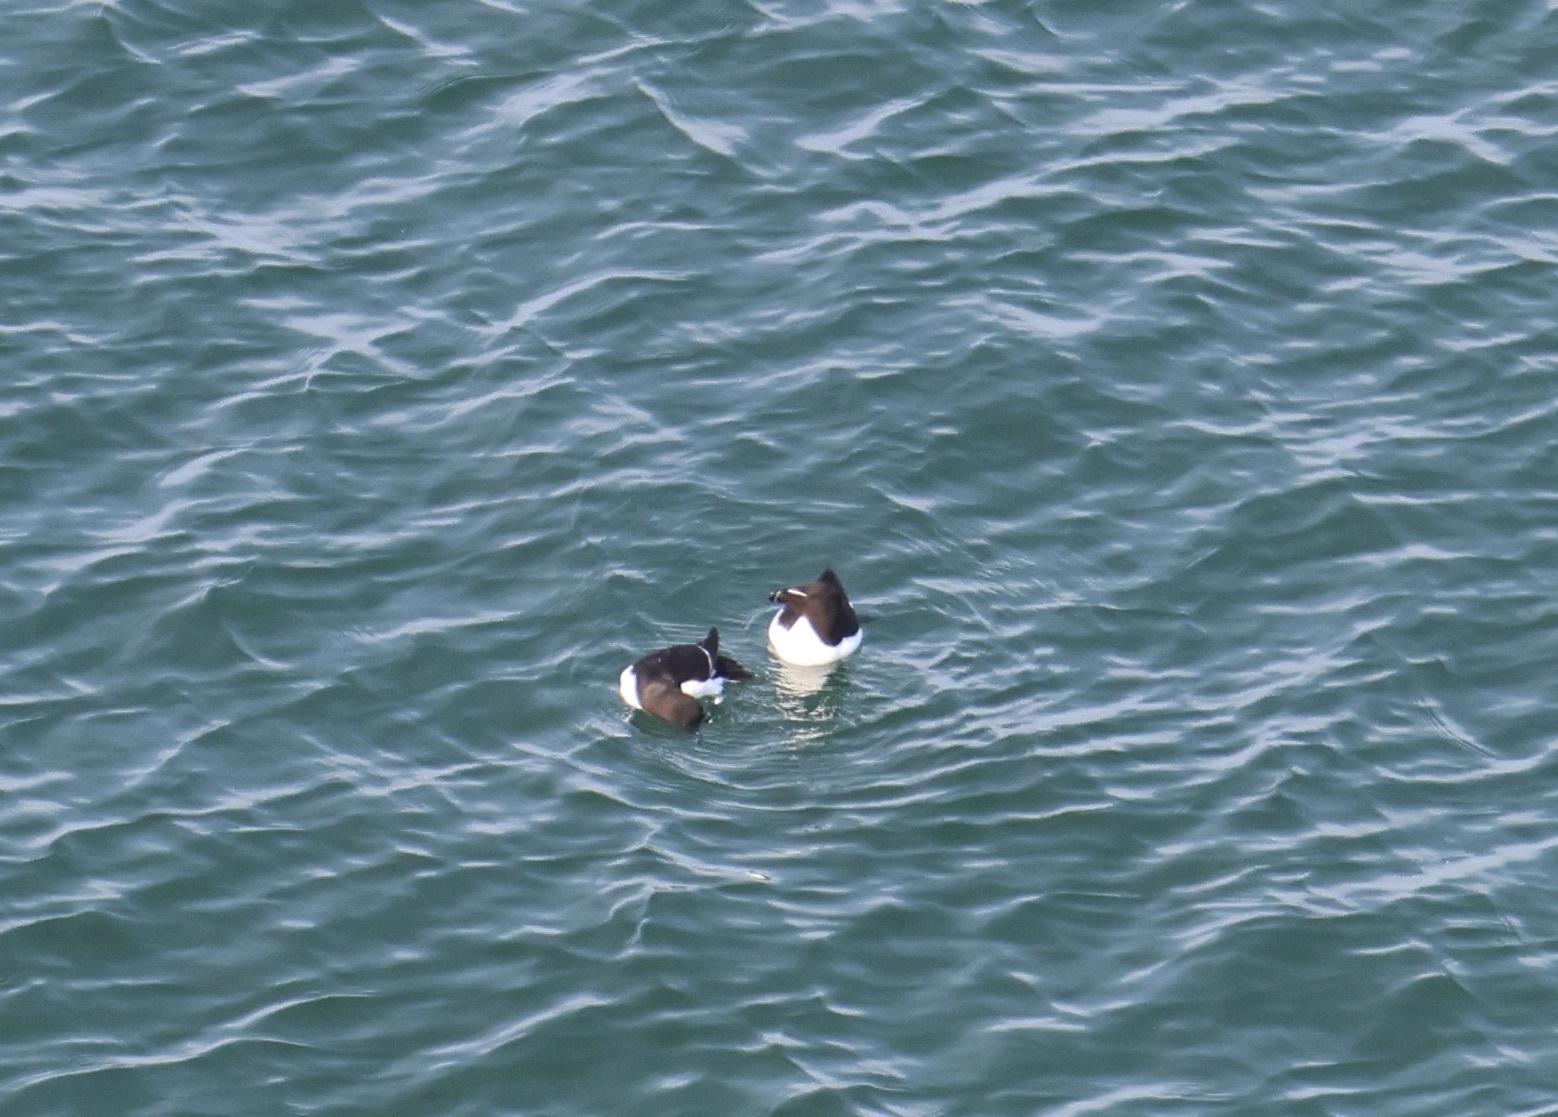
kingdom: Animalia
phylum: Chordata
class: Aves
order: Charadriiformes
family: Alcidae
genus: Alca
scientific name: Alca torda
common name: Razorbill
